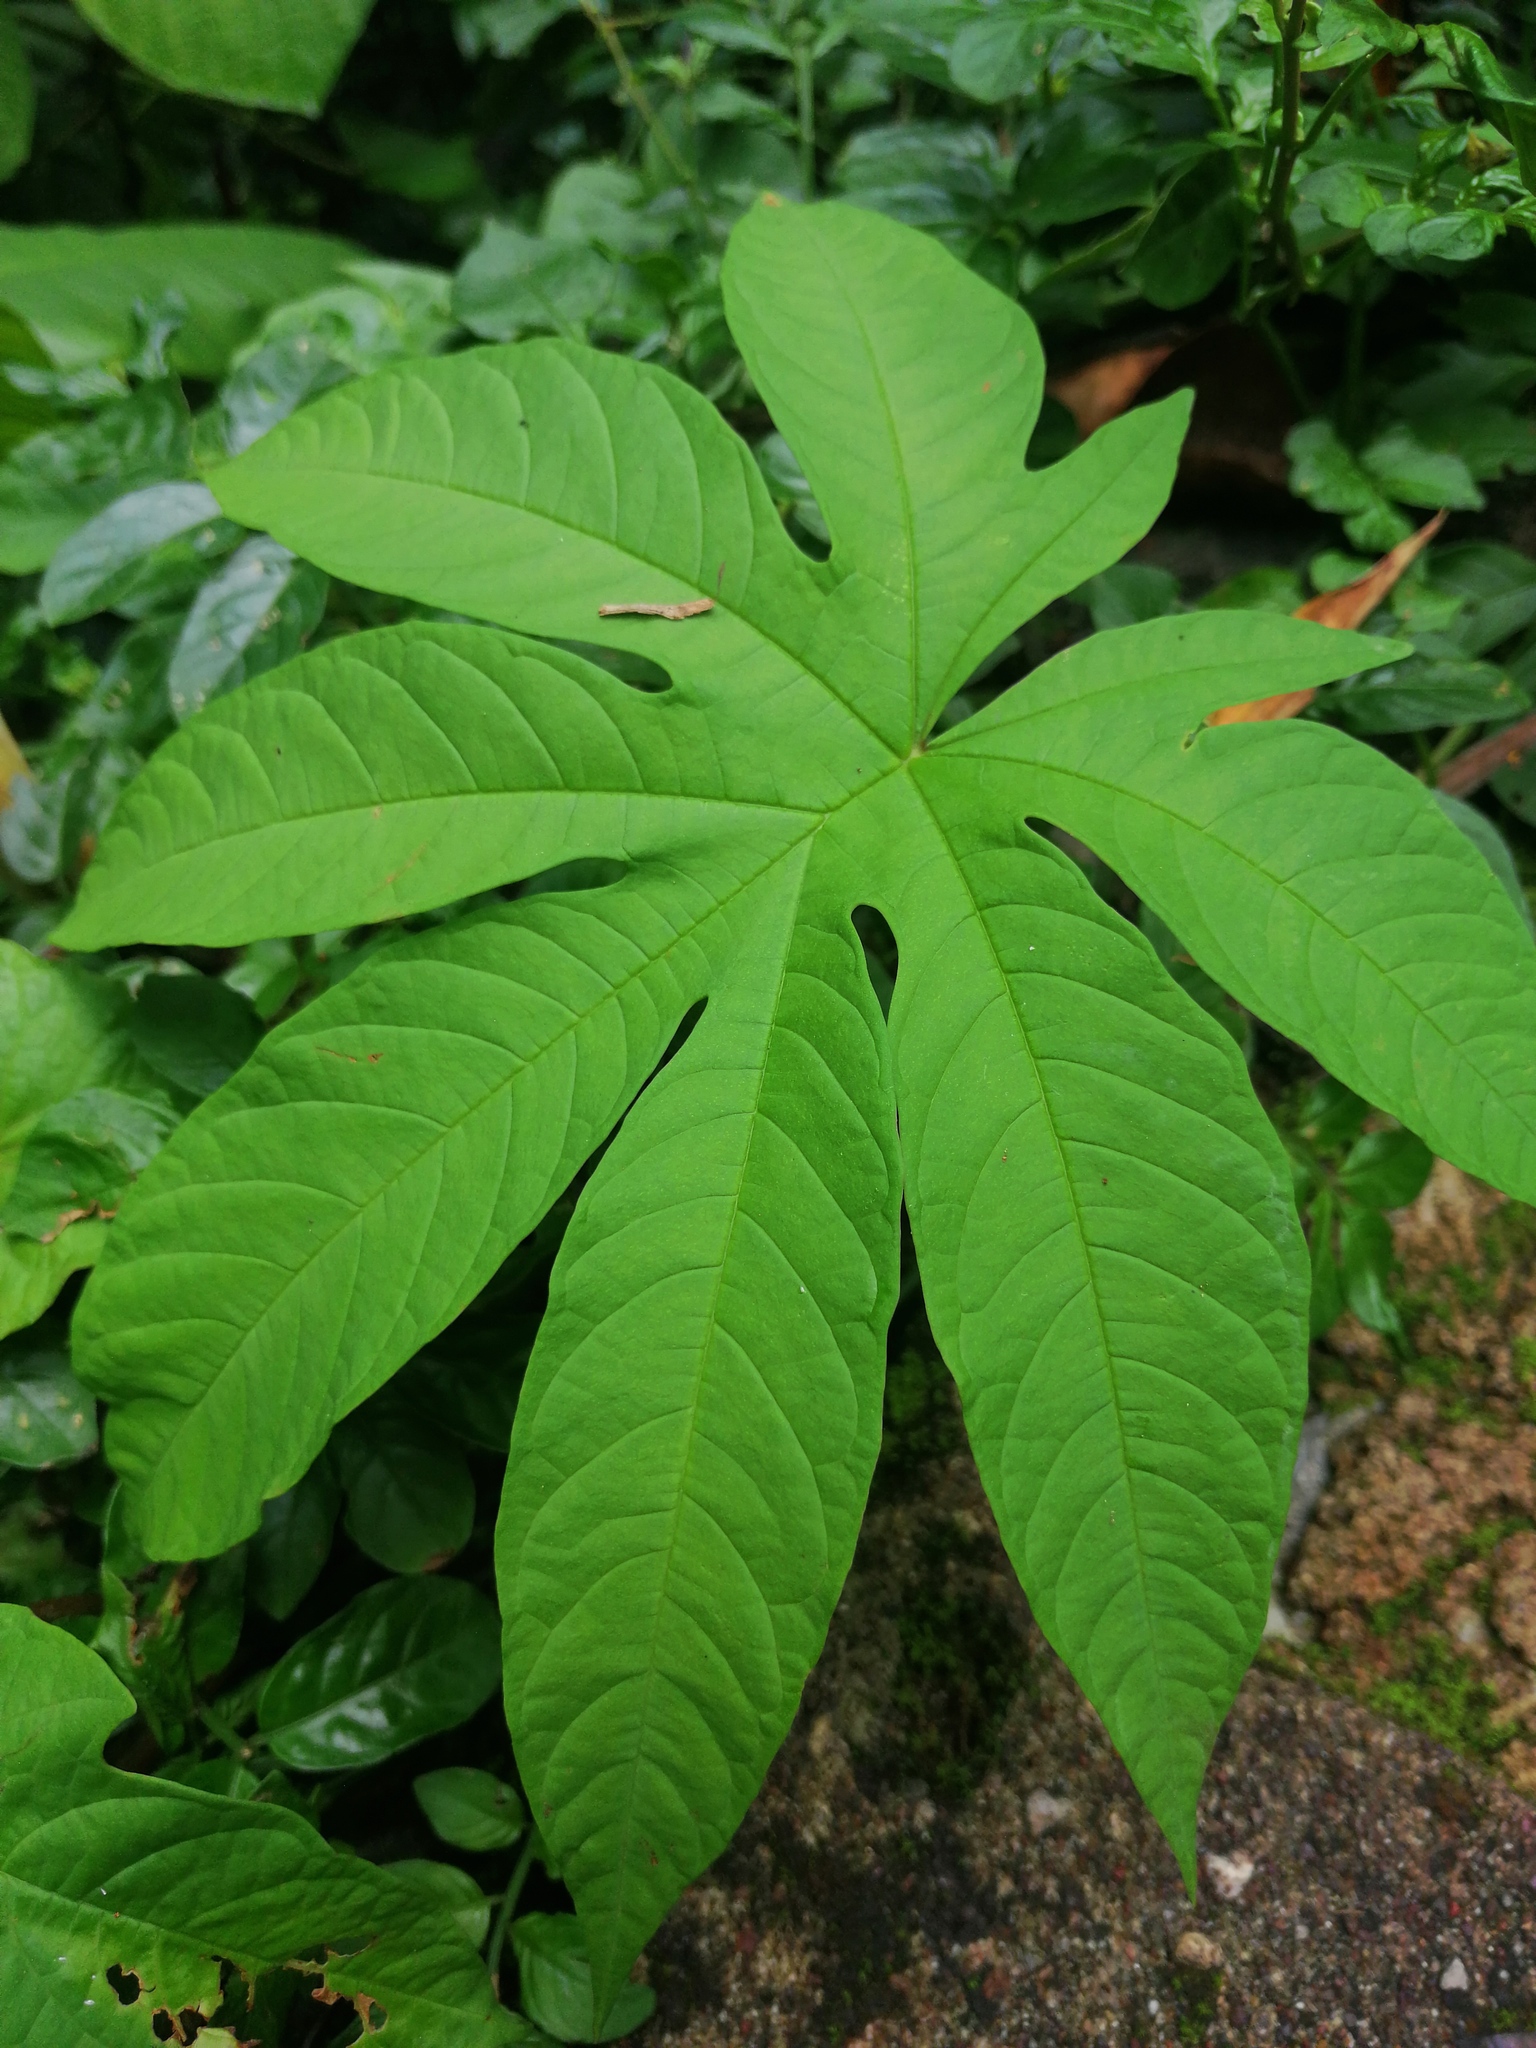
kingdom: Plantae
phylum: Tracheophyta
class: Magnoliopsida
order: Solanales
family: Convolvulaceae
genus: Distimake
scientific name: Distimake tuberosus
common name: Spanish arborvine
